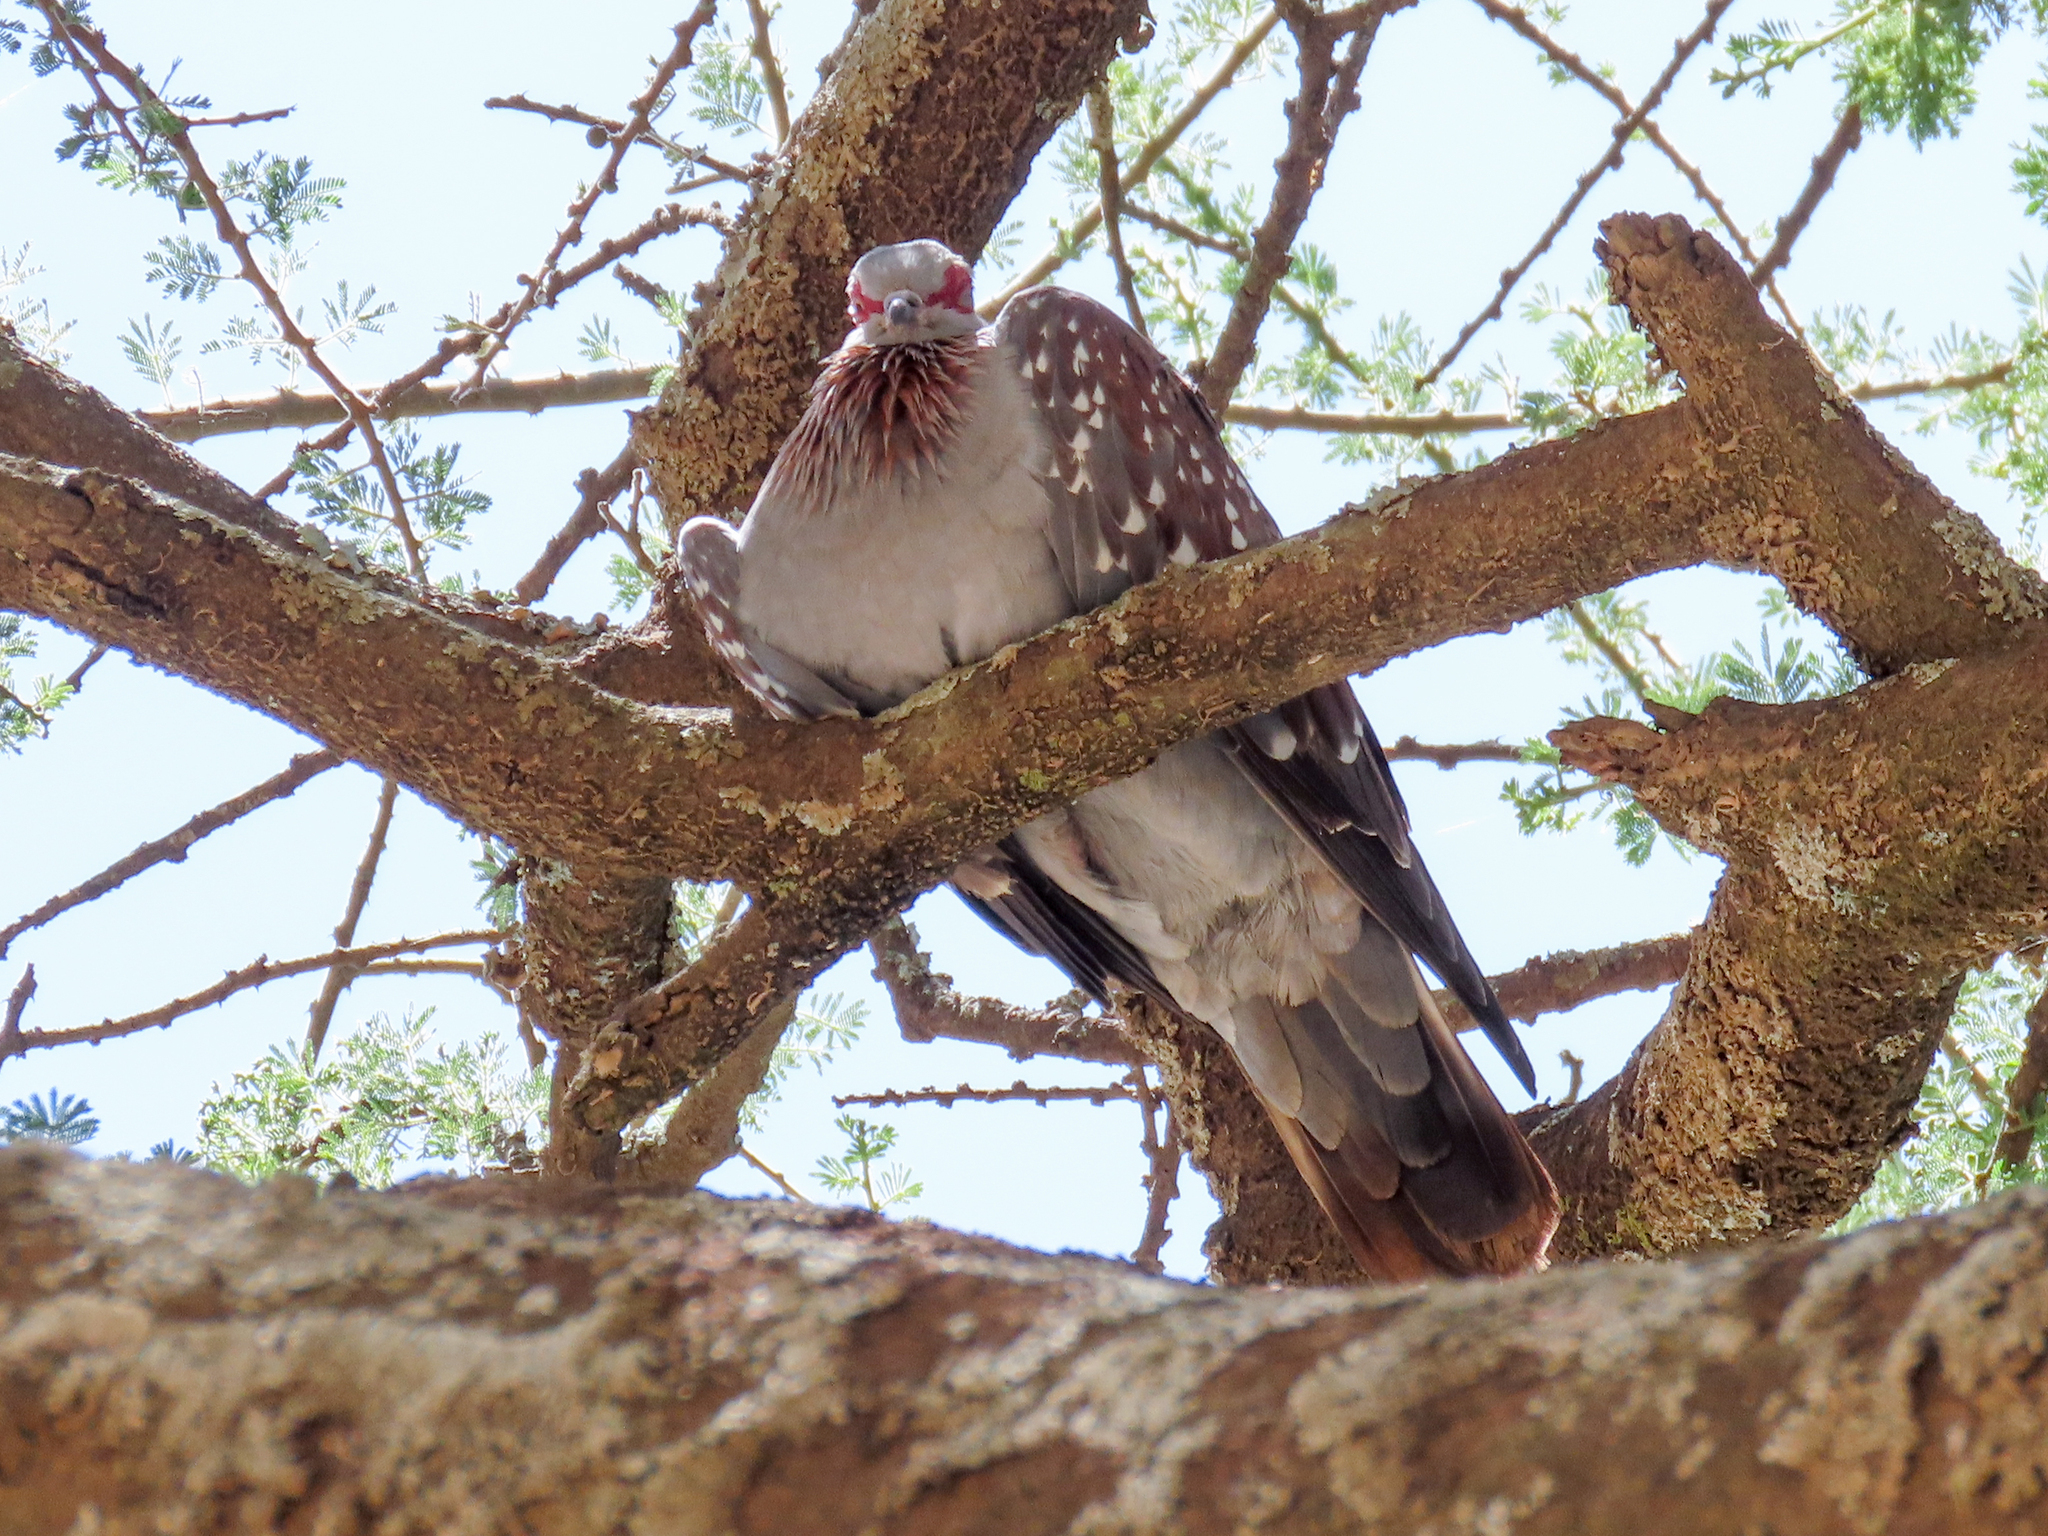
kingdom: Animalia
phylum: Chordata
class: Aves
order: Columbiformes
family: Columbidae
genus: Columba
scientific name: Columba guinea
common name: Speckled pigeon
